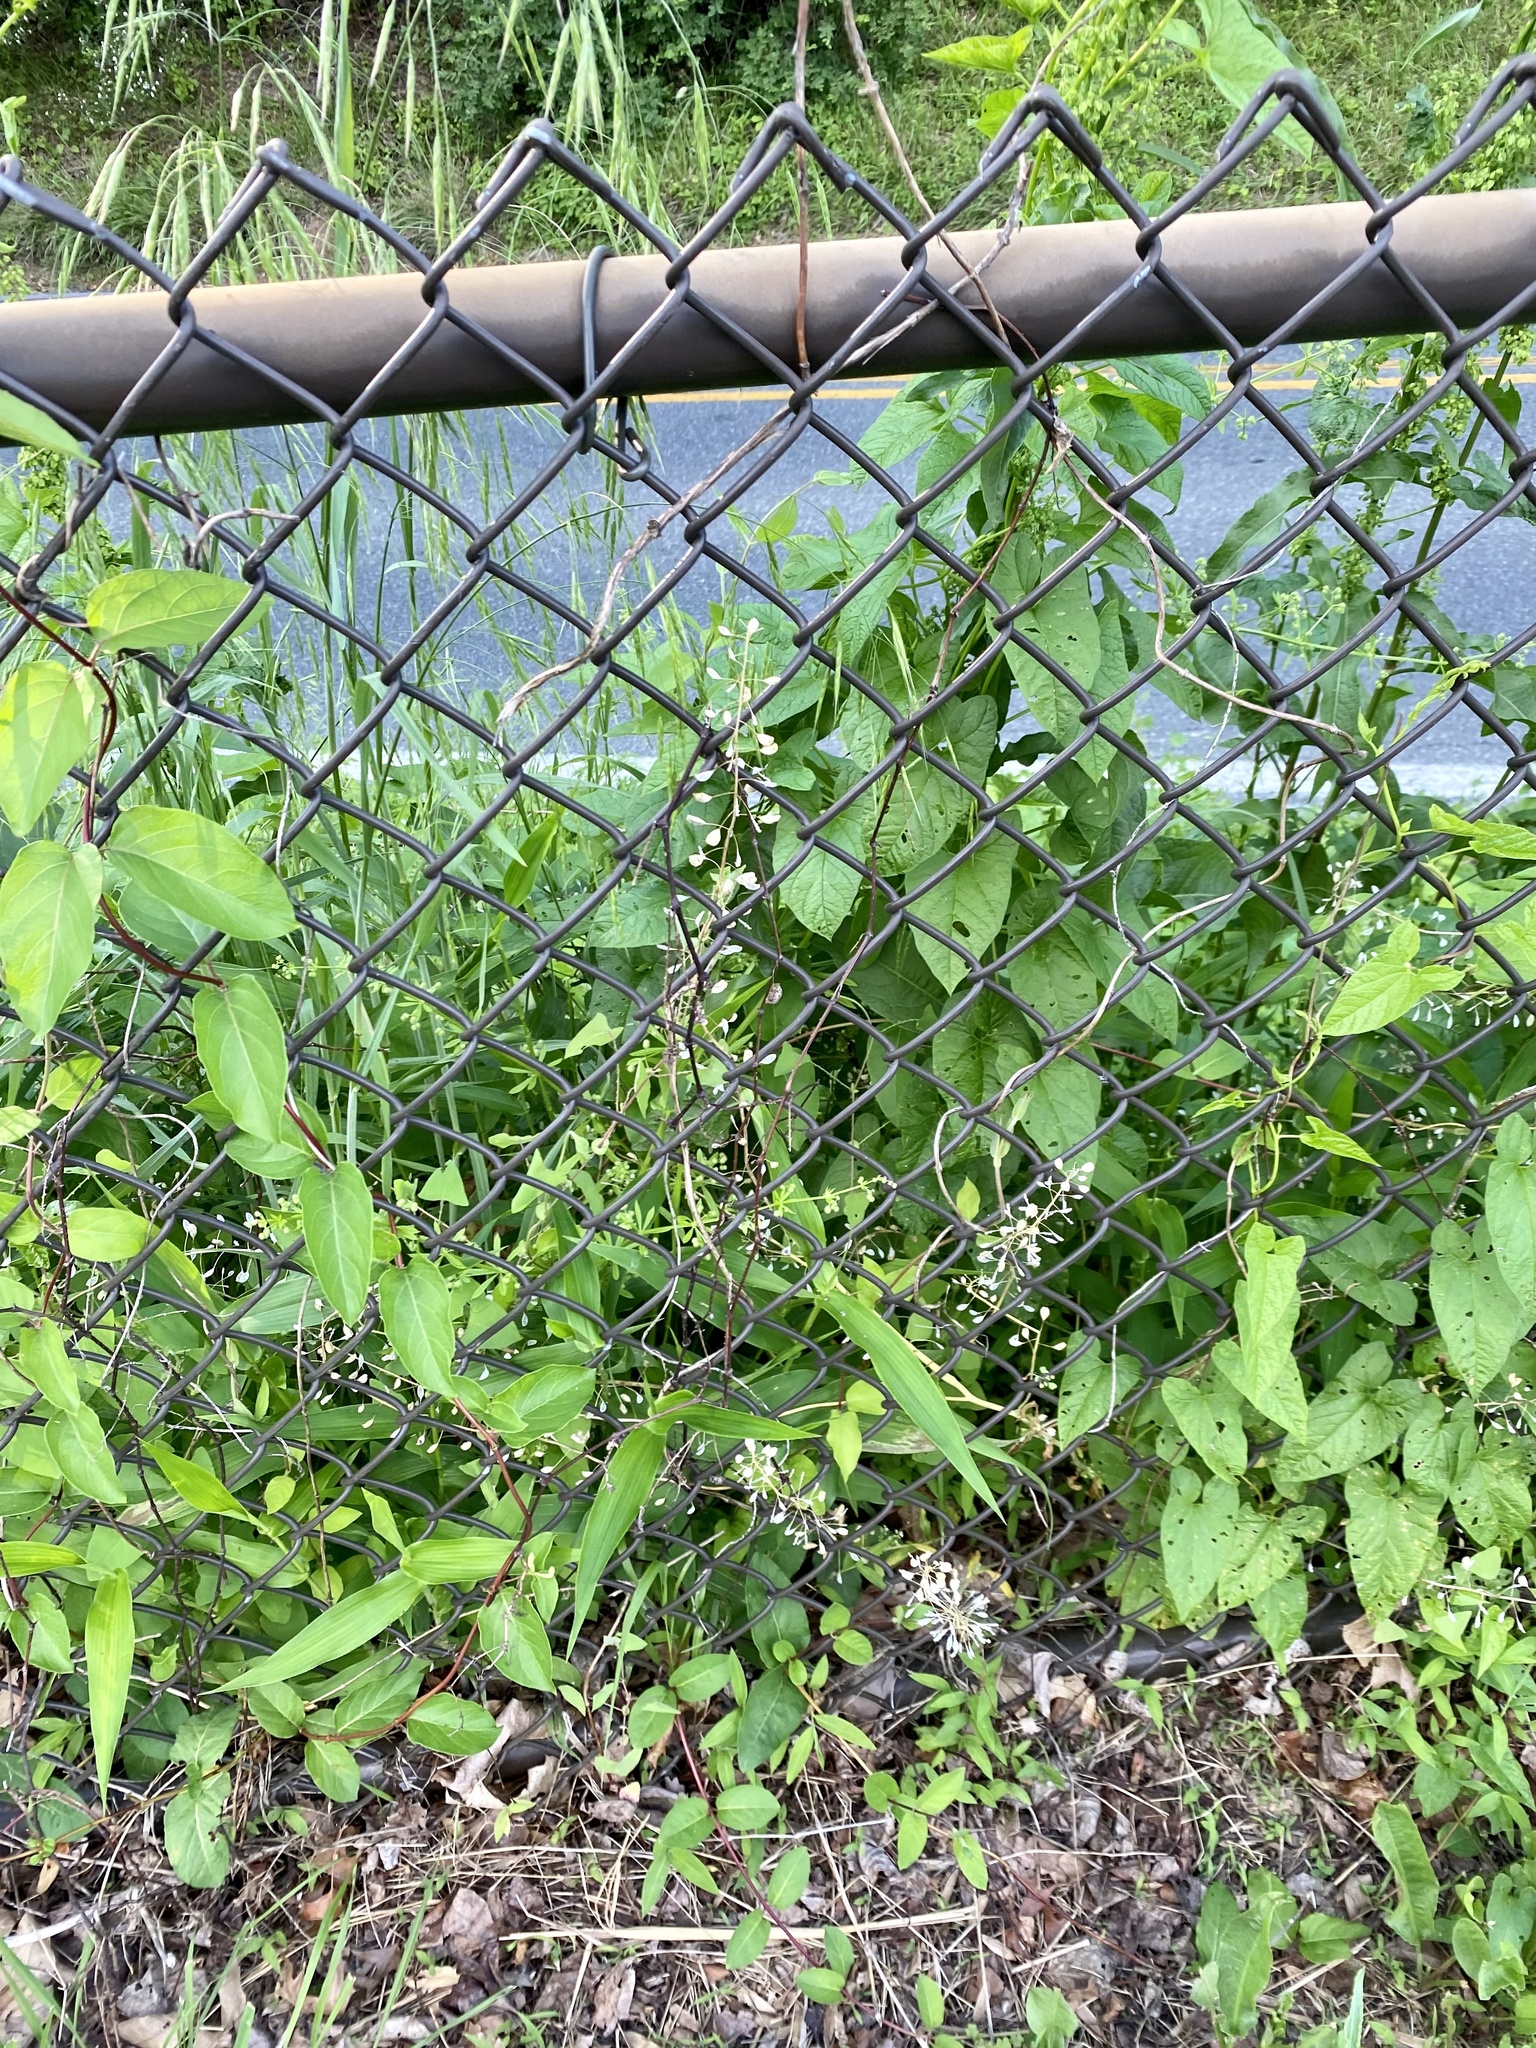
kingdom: Plantae
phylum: Tracheophyta
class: Magnoliopsida
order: Brassicales
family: Brassicaceae
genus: Mummenhoffia
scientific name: Mummenhoffia alliacea
